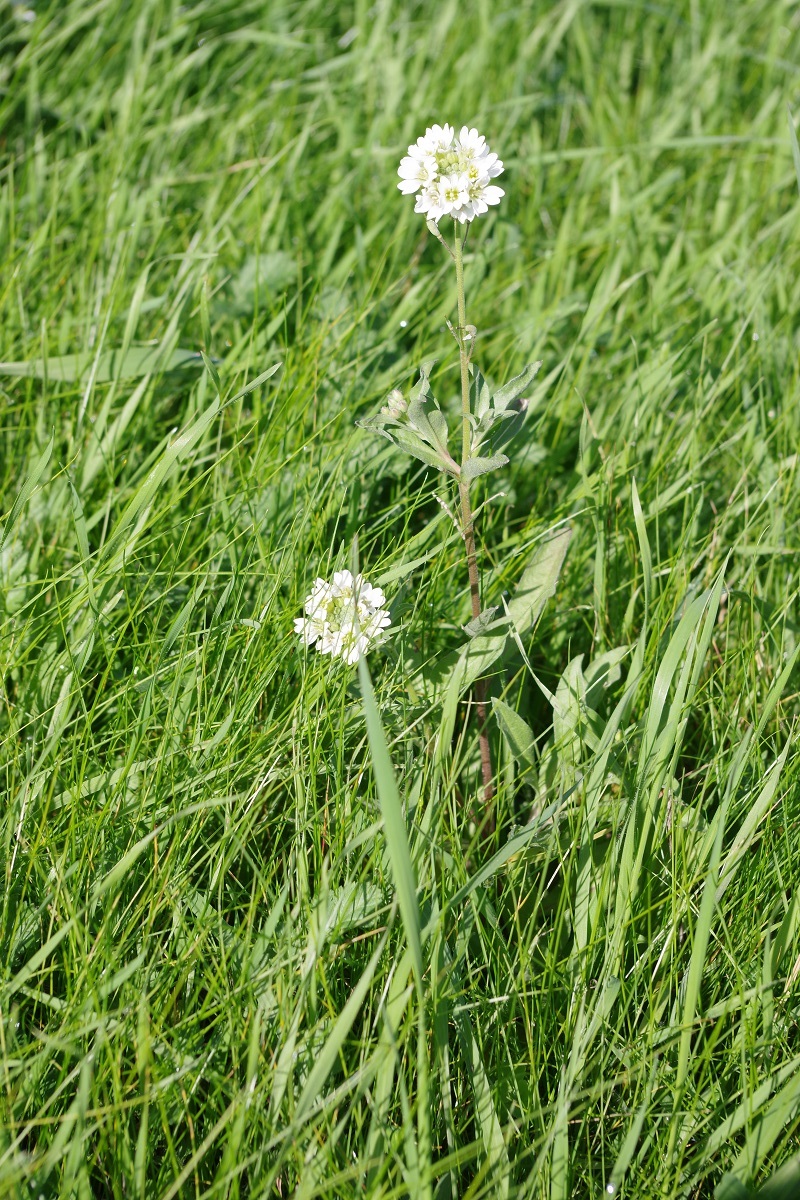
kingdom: Plantae
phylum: Tracheophyta
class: Magnoliopsida
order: Brassicales
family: Brassicaceae
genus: Berteroa
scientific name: Berteroa incana
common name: Hoary alison
